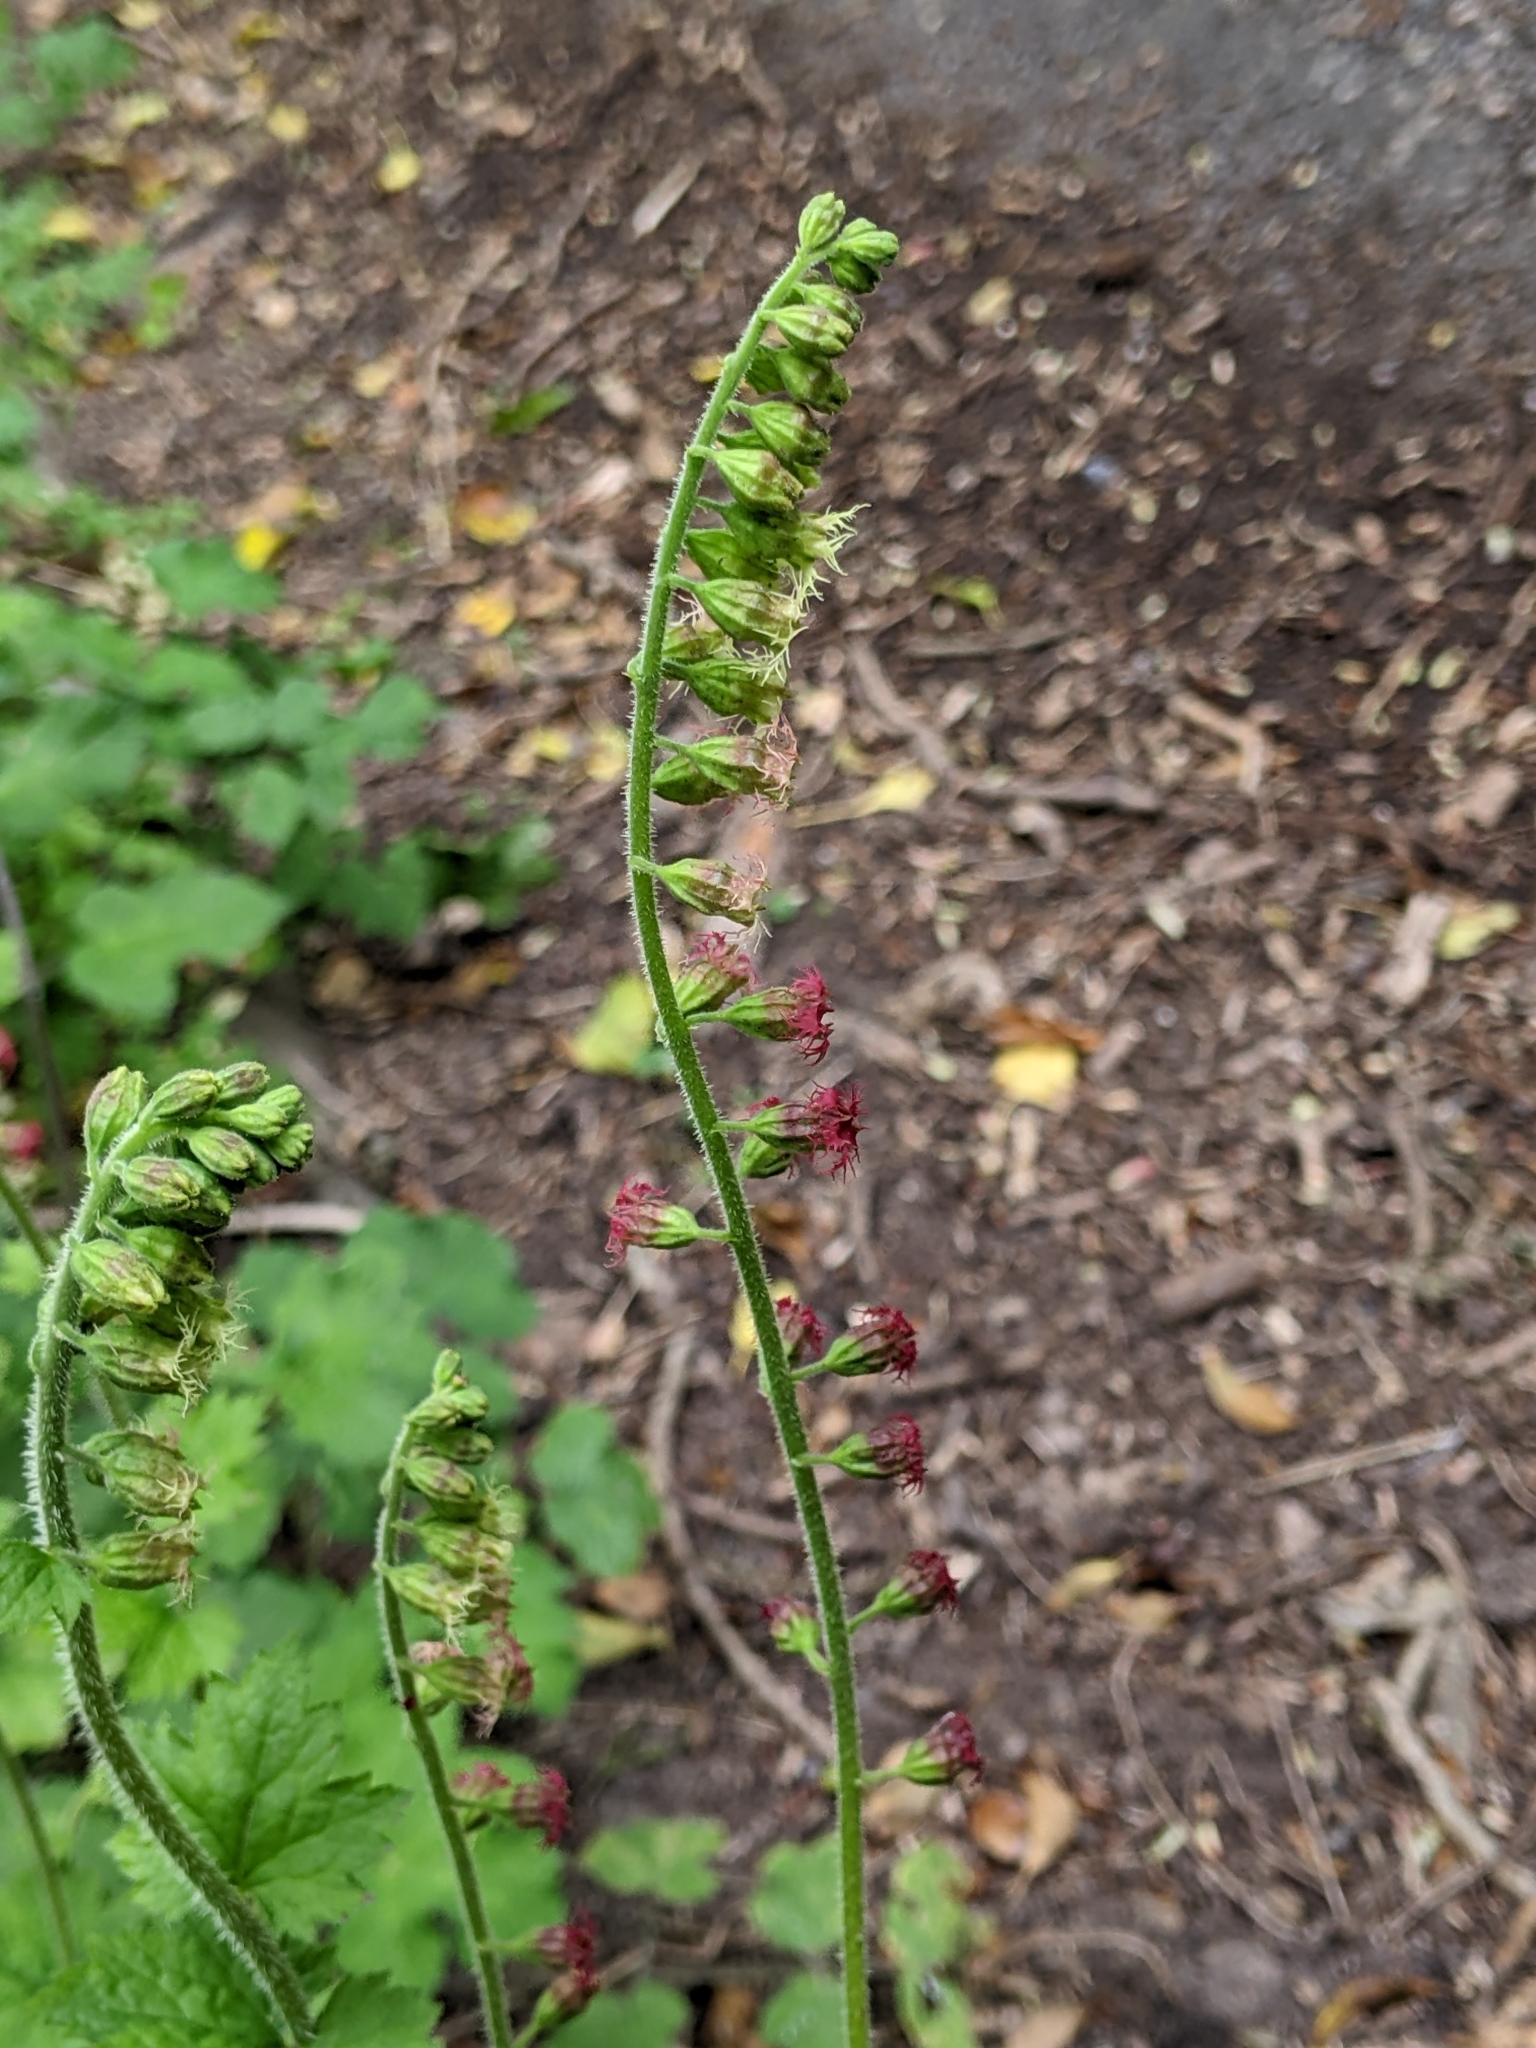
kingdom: Plantae
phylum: Tracheophyta
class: Magnoliopsida
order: Saxifragales
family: Saxifragaceae
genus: Tellima
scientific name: Tellima grandiflora
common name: Fringecups
